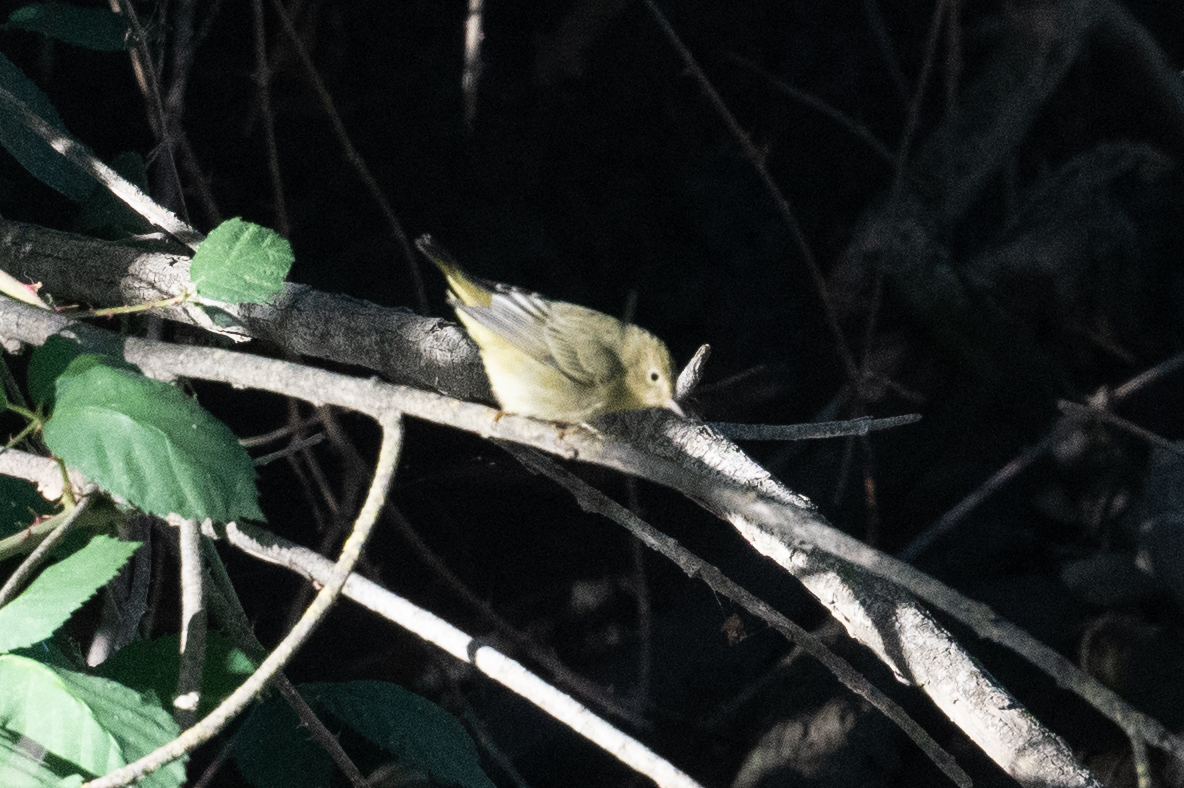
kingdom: Animalia
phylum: Chordata
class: Aves
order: Passeriformes
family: Parulidae
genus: Setophaga
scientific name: Setophaga petechia
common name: Yellow warbler
